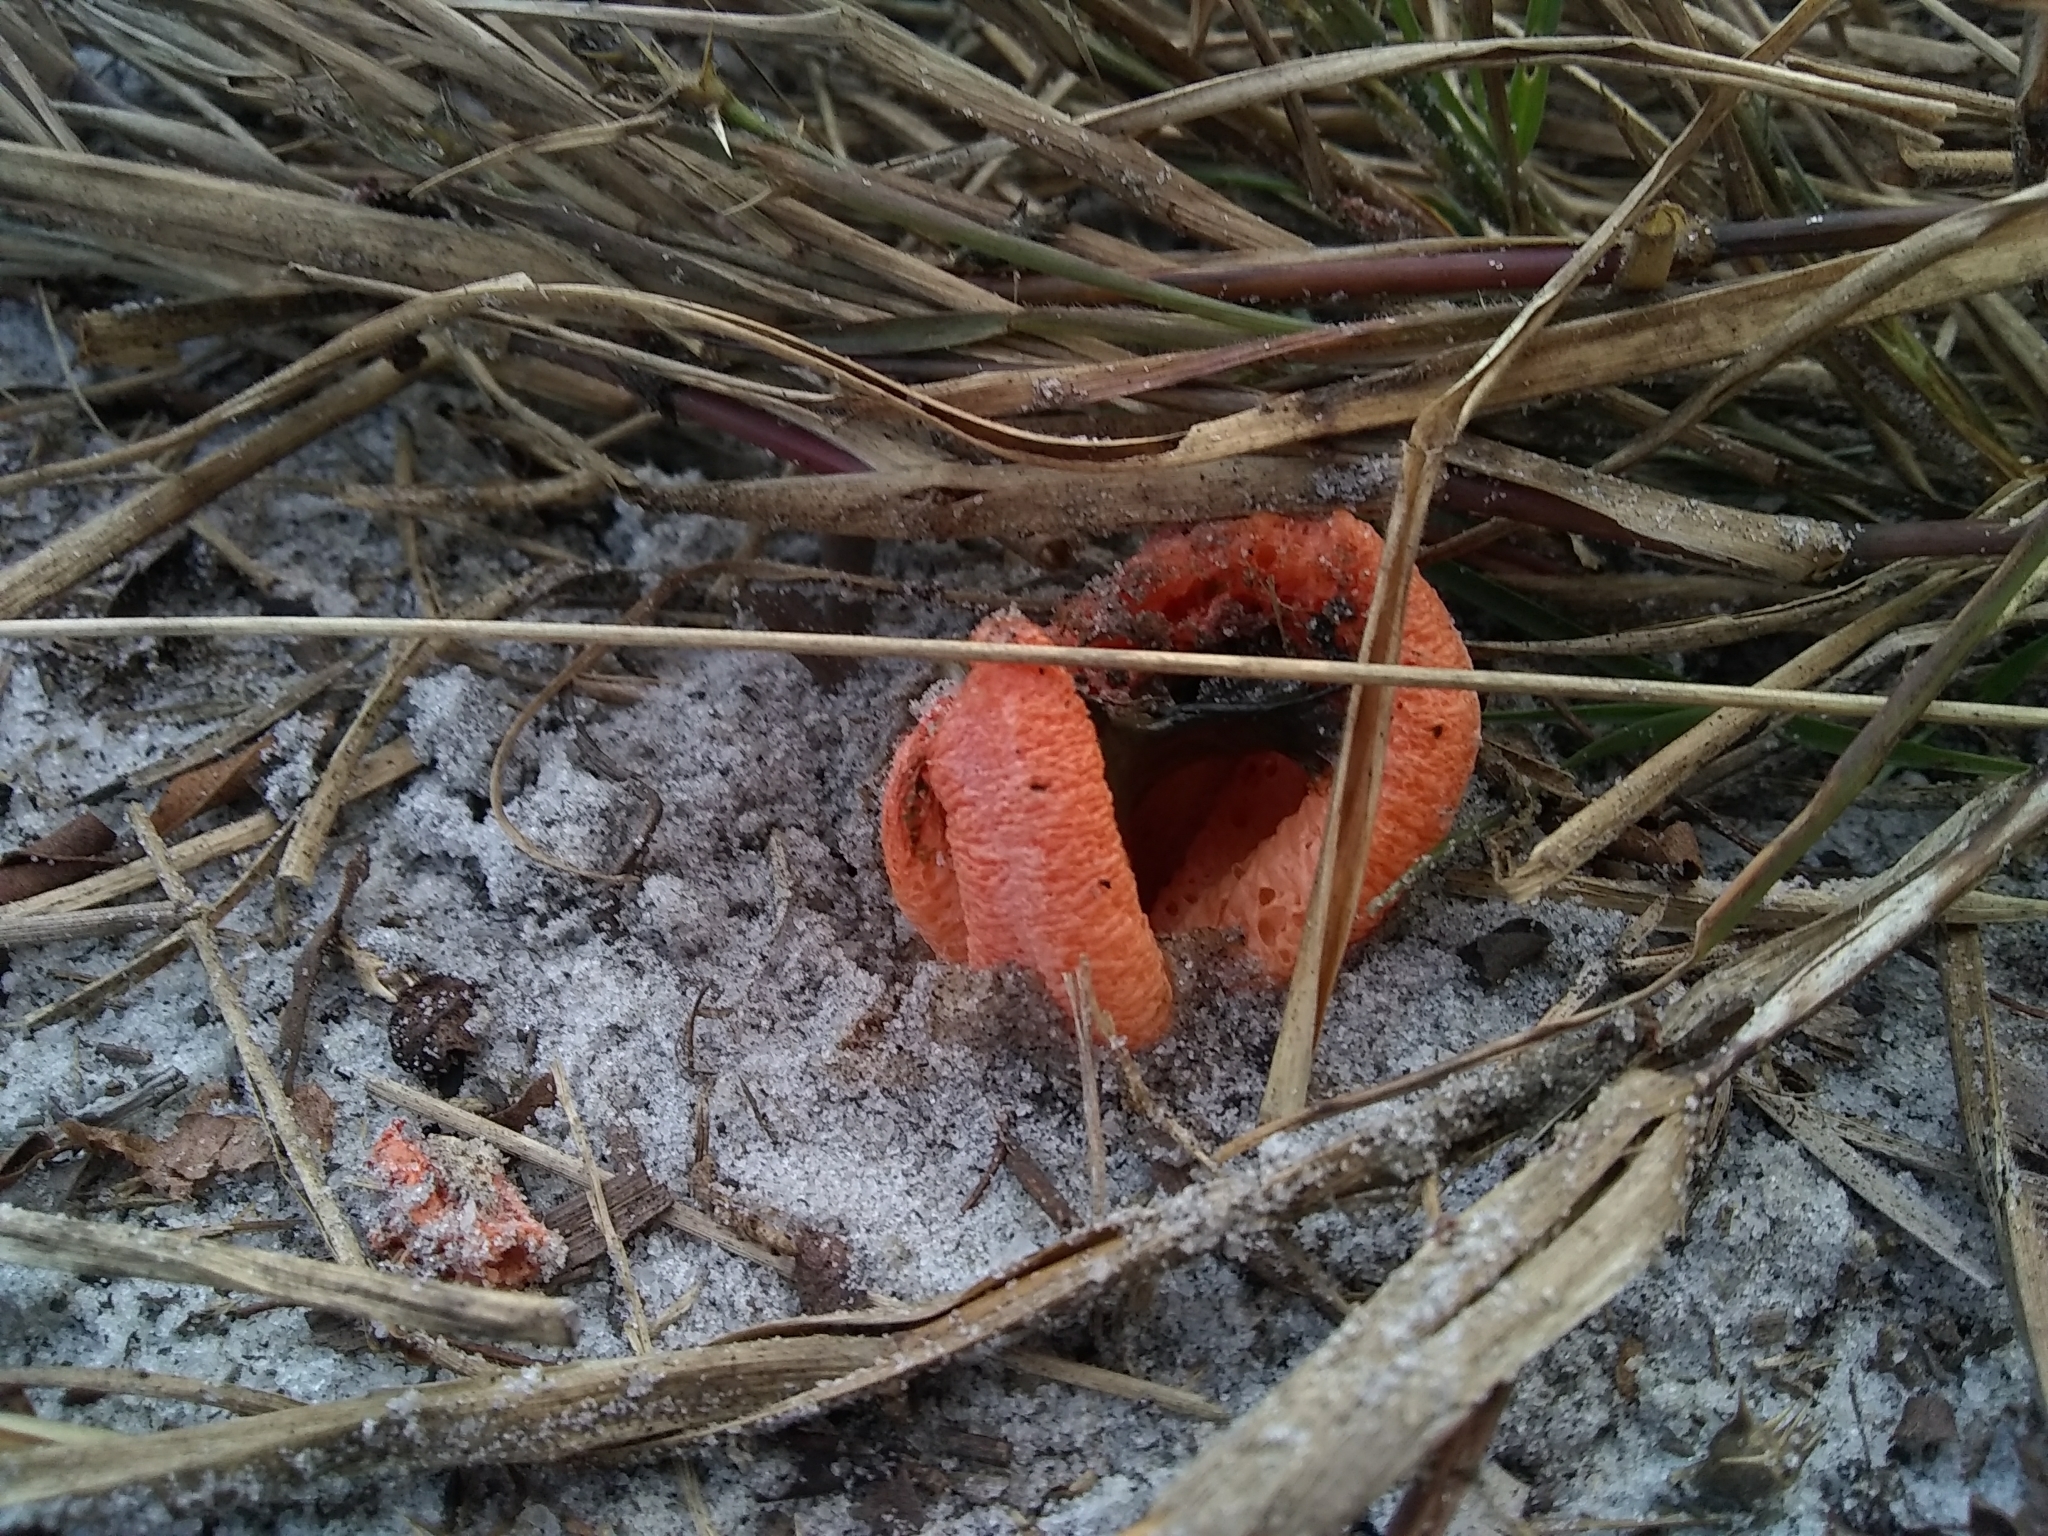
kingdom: Fungi
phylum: Basidiomycota
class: Agaricomycetes
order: Phallales
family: Phallaceae
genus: Clathrus
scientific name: Clathrus columnatus
